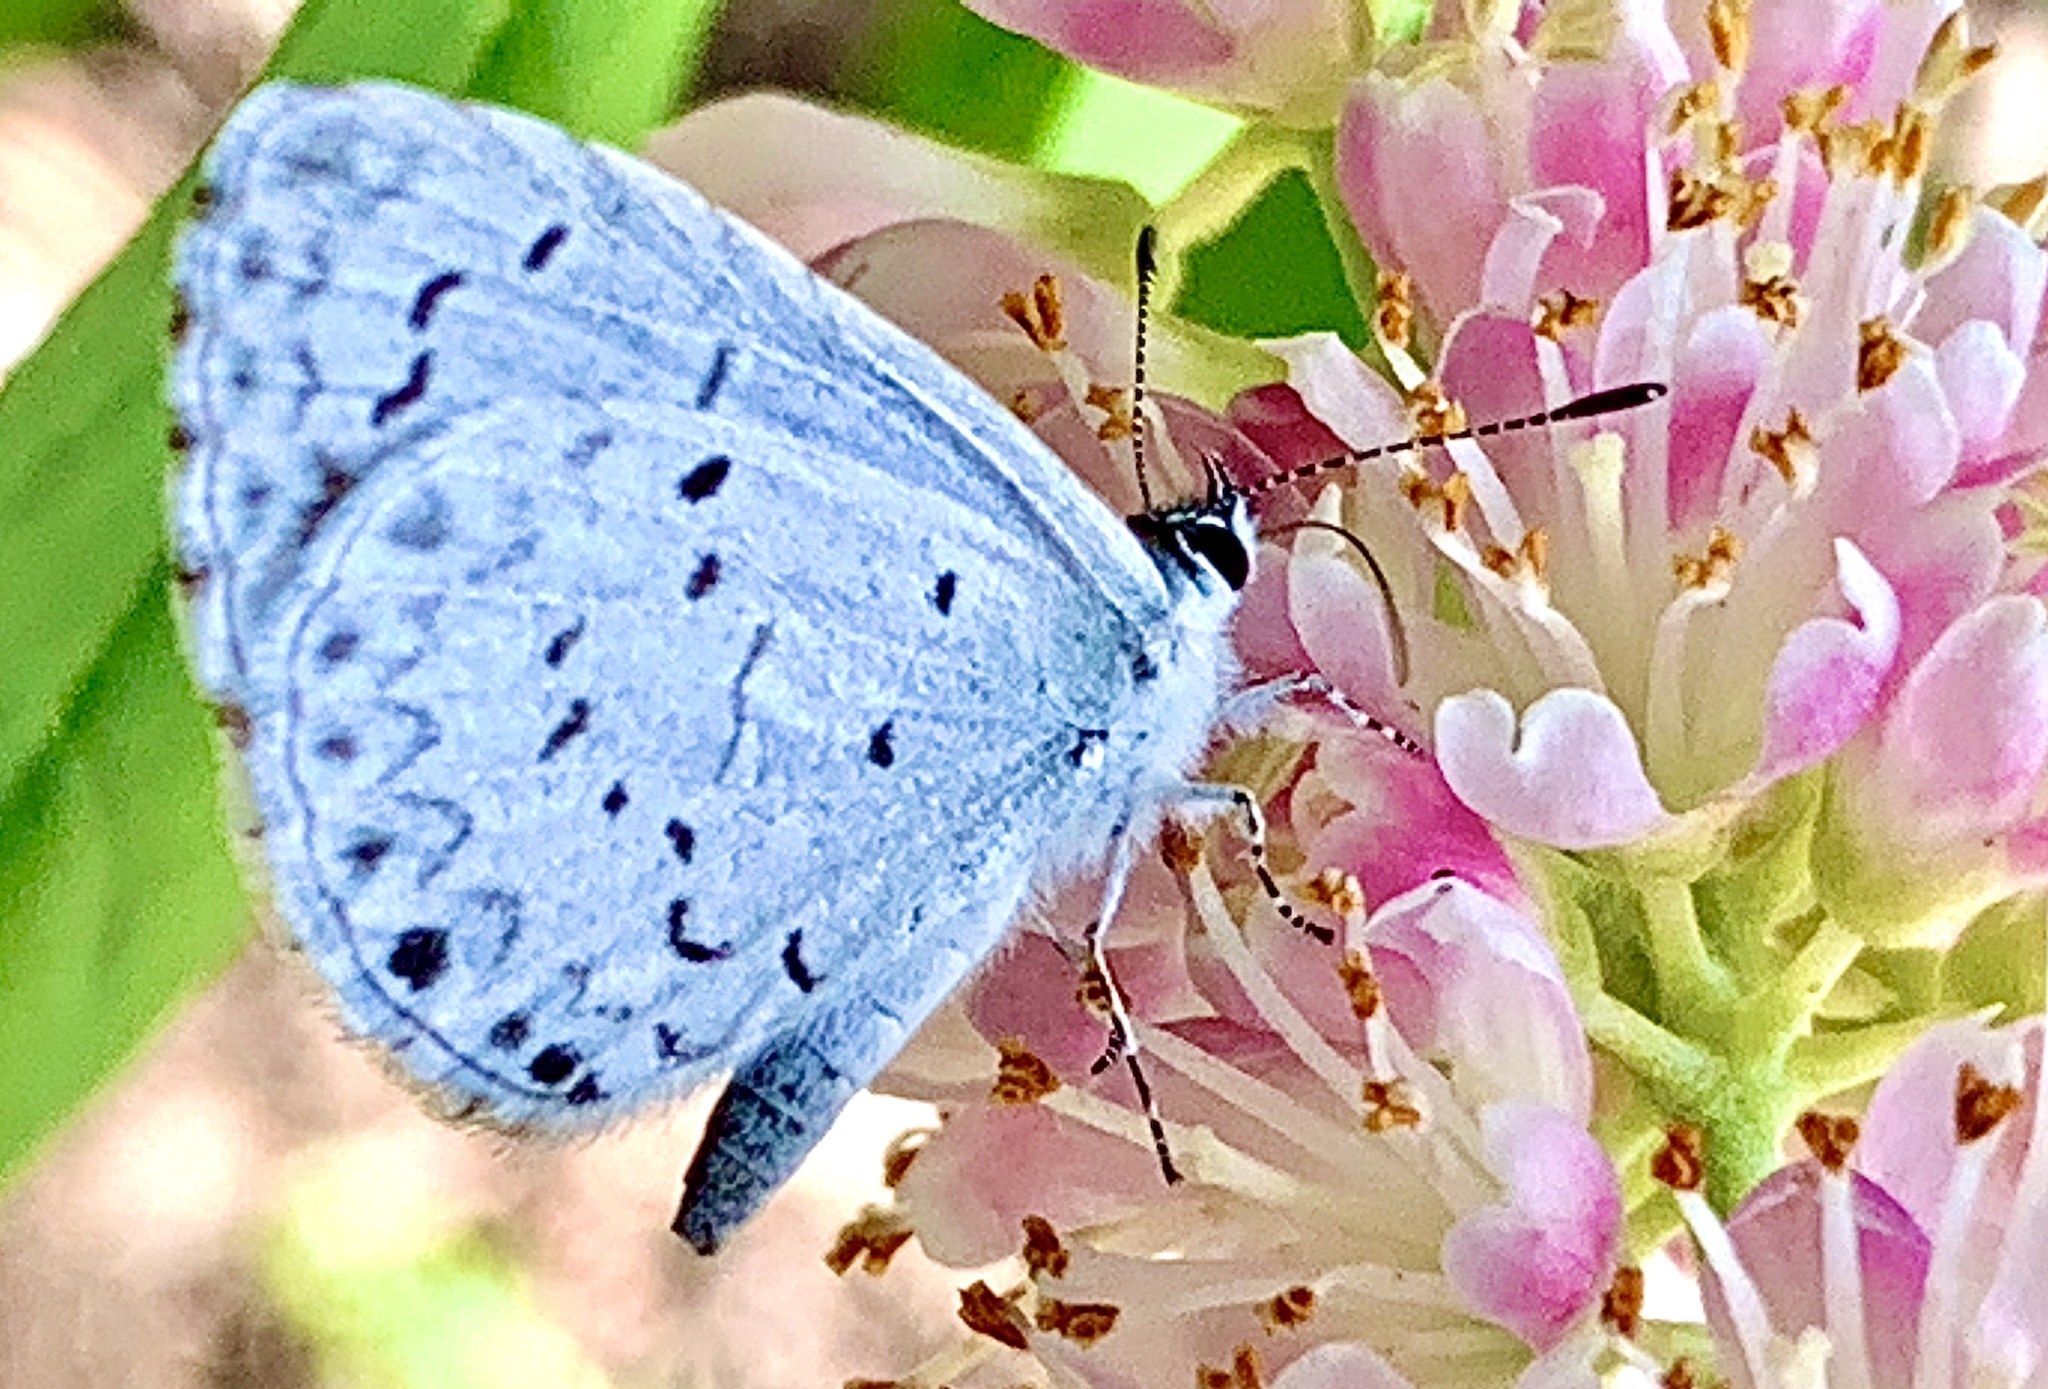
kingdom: Animalia
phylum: Arthropoda
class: Insecta
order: Lepidoptera
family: Lycaenidae
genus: Cyaniris
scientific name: Cyaniris neglecta
